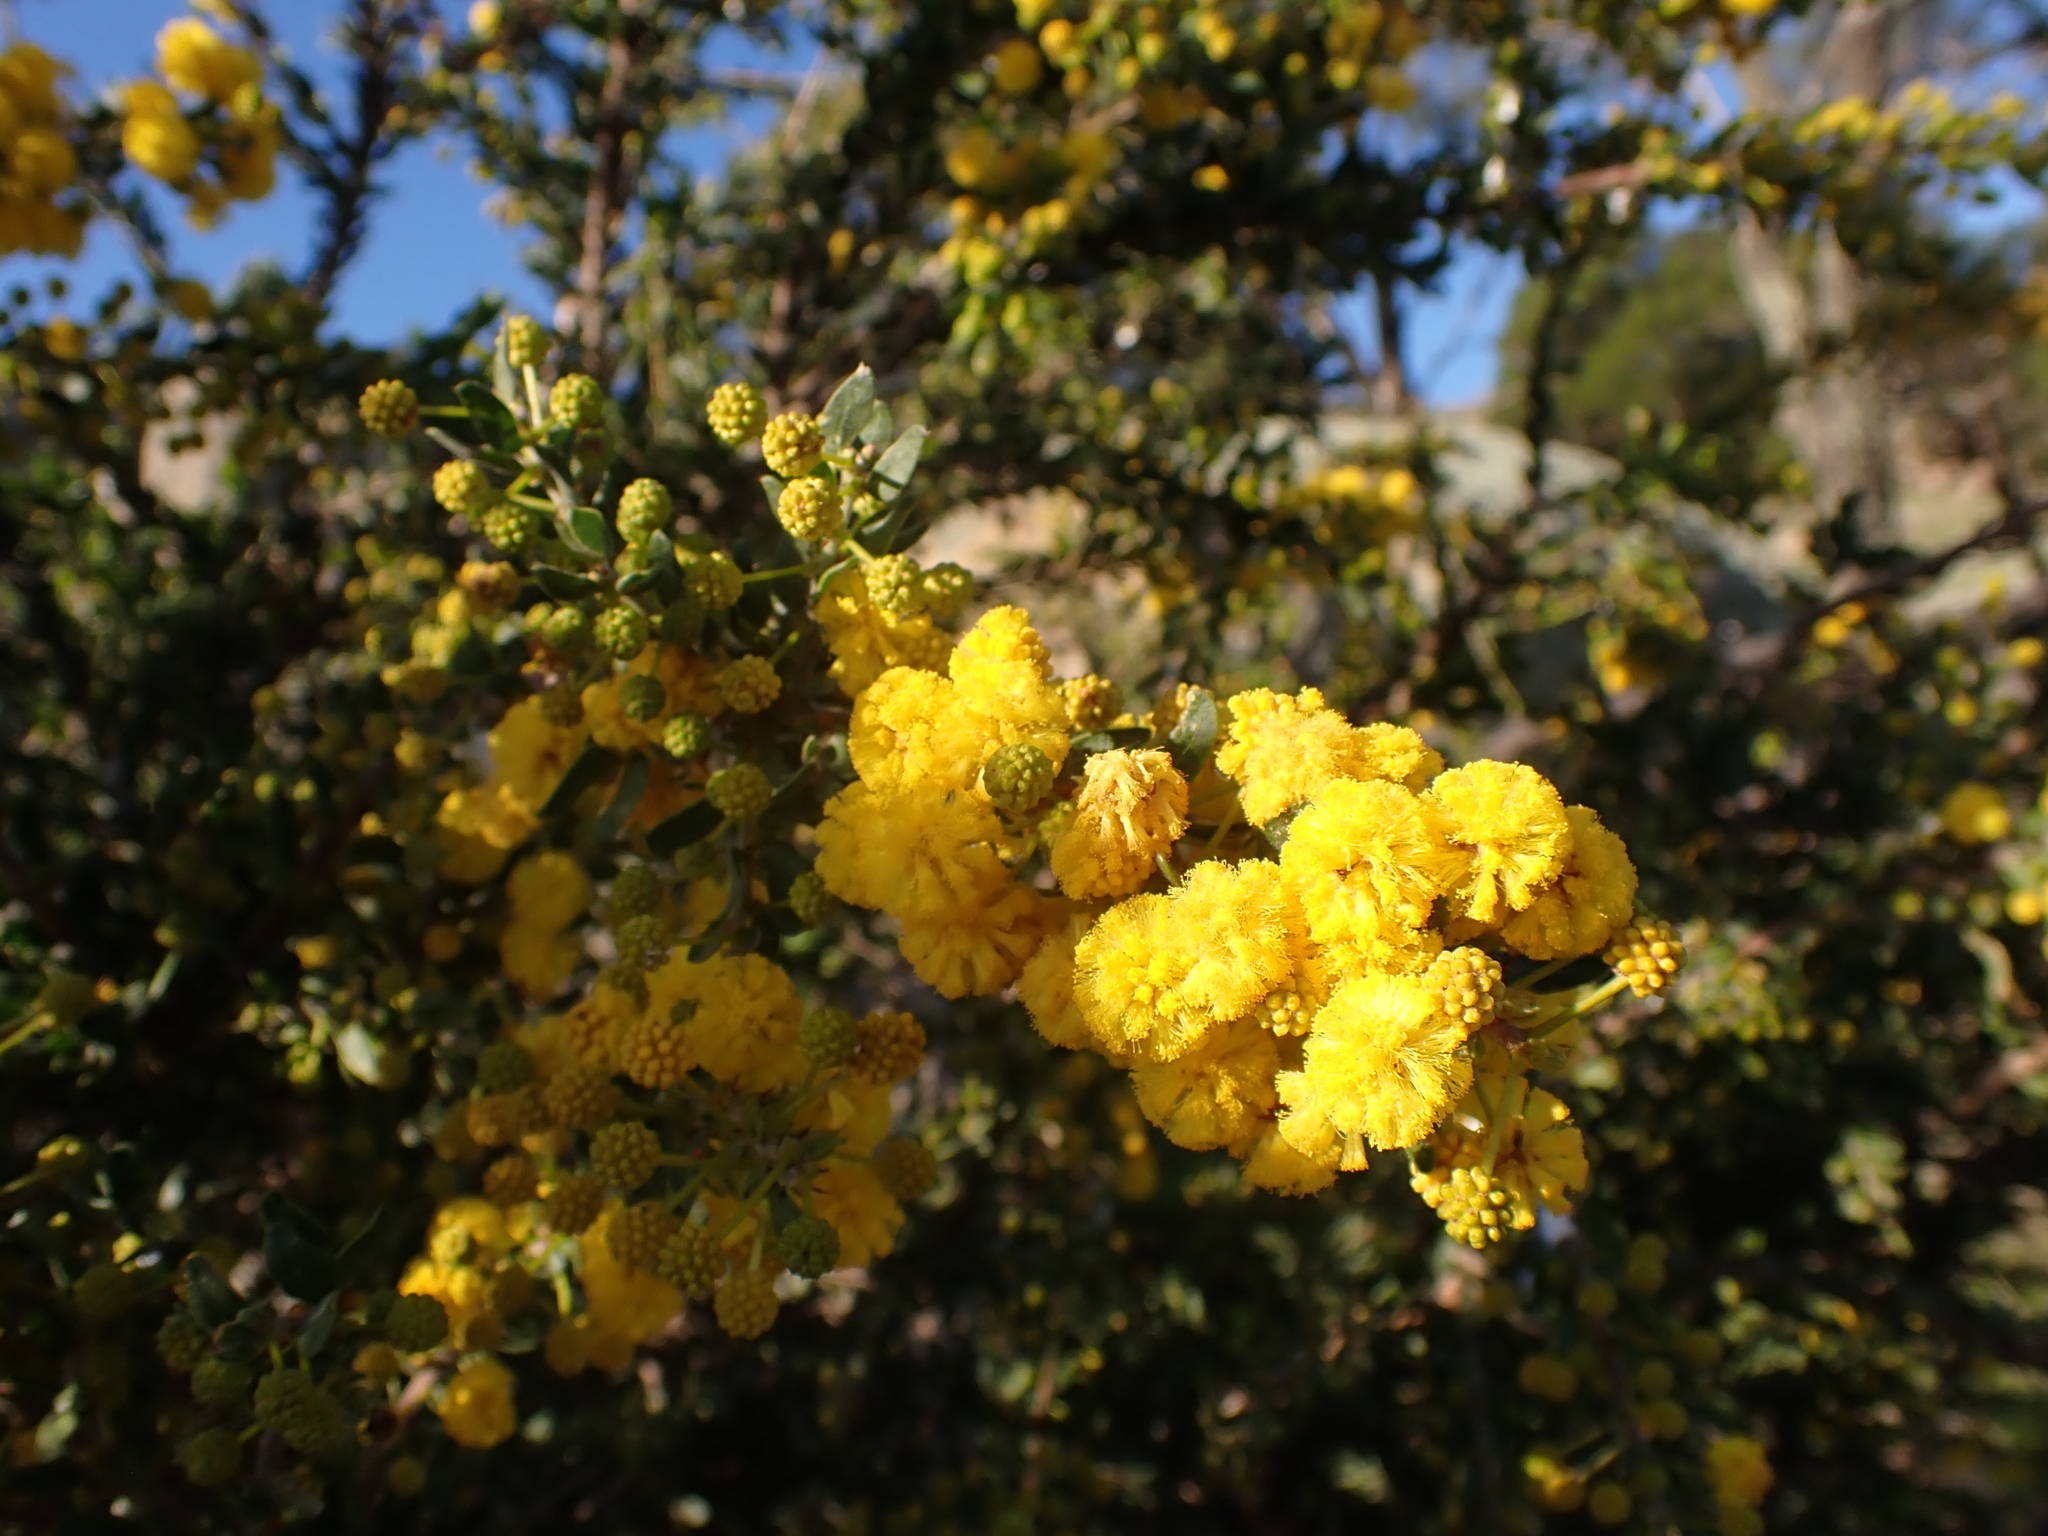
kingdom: Plantae
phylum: Tracheophyta
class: Magnoliopsida
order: Fabales
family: Fabaceae
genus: Acacia
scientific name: Acacia paradoxa
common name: Paradox acacia
